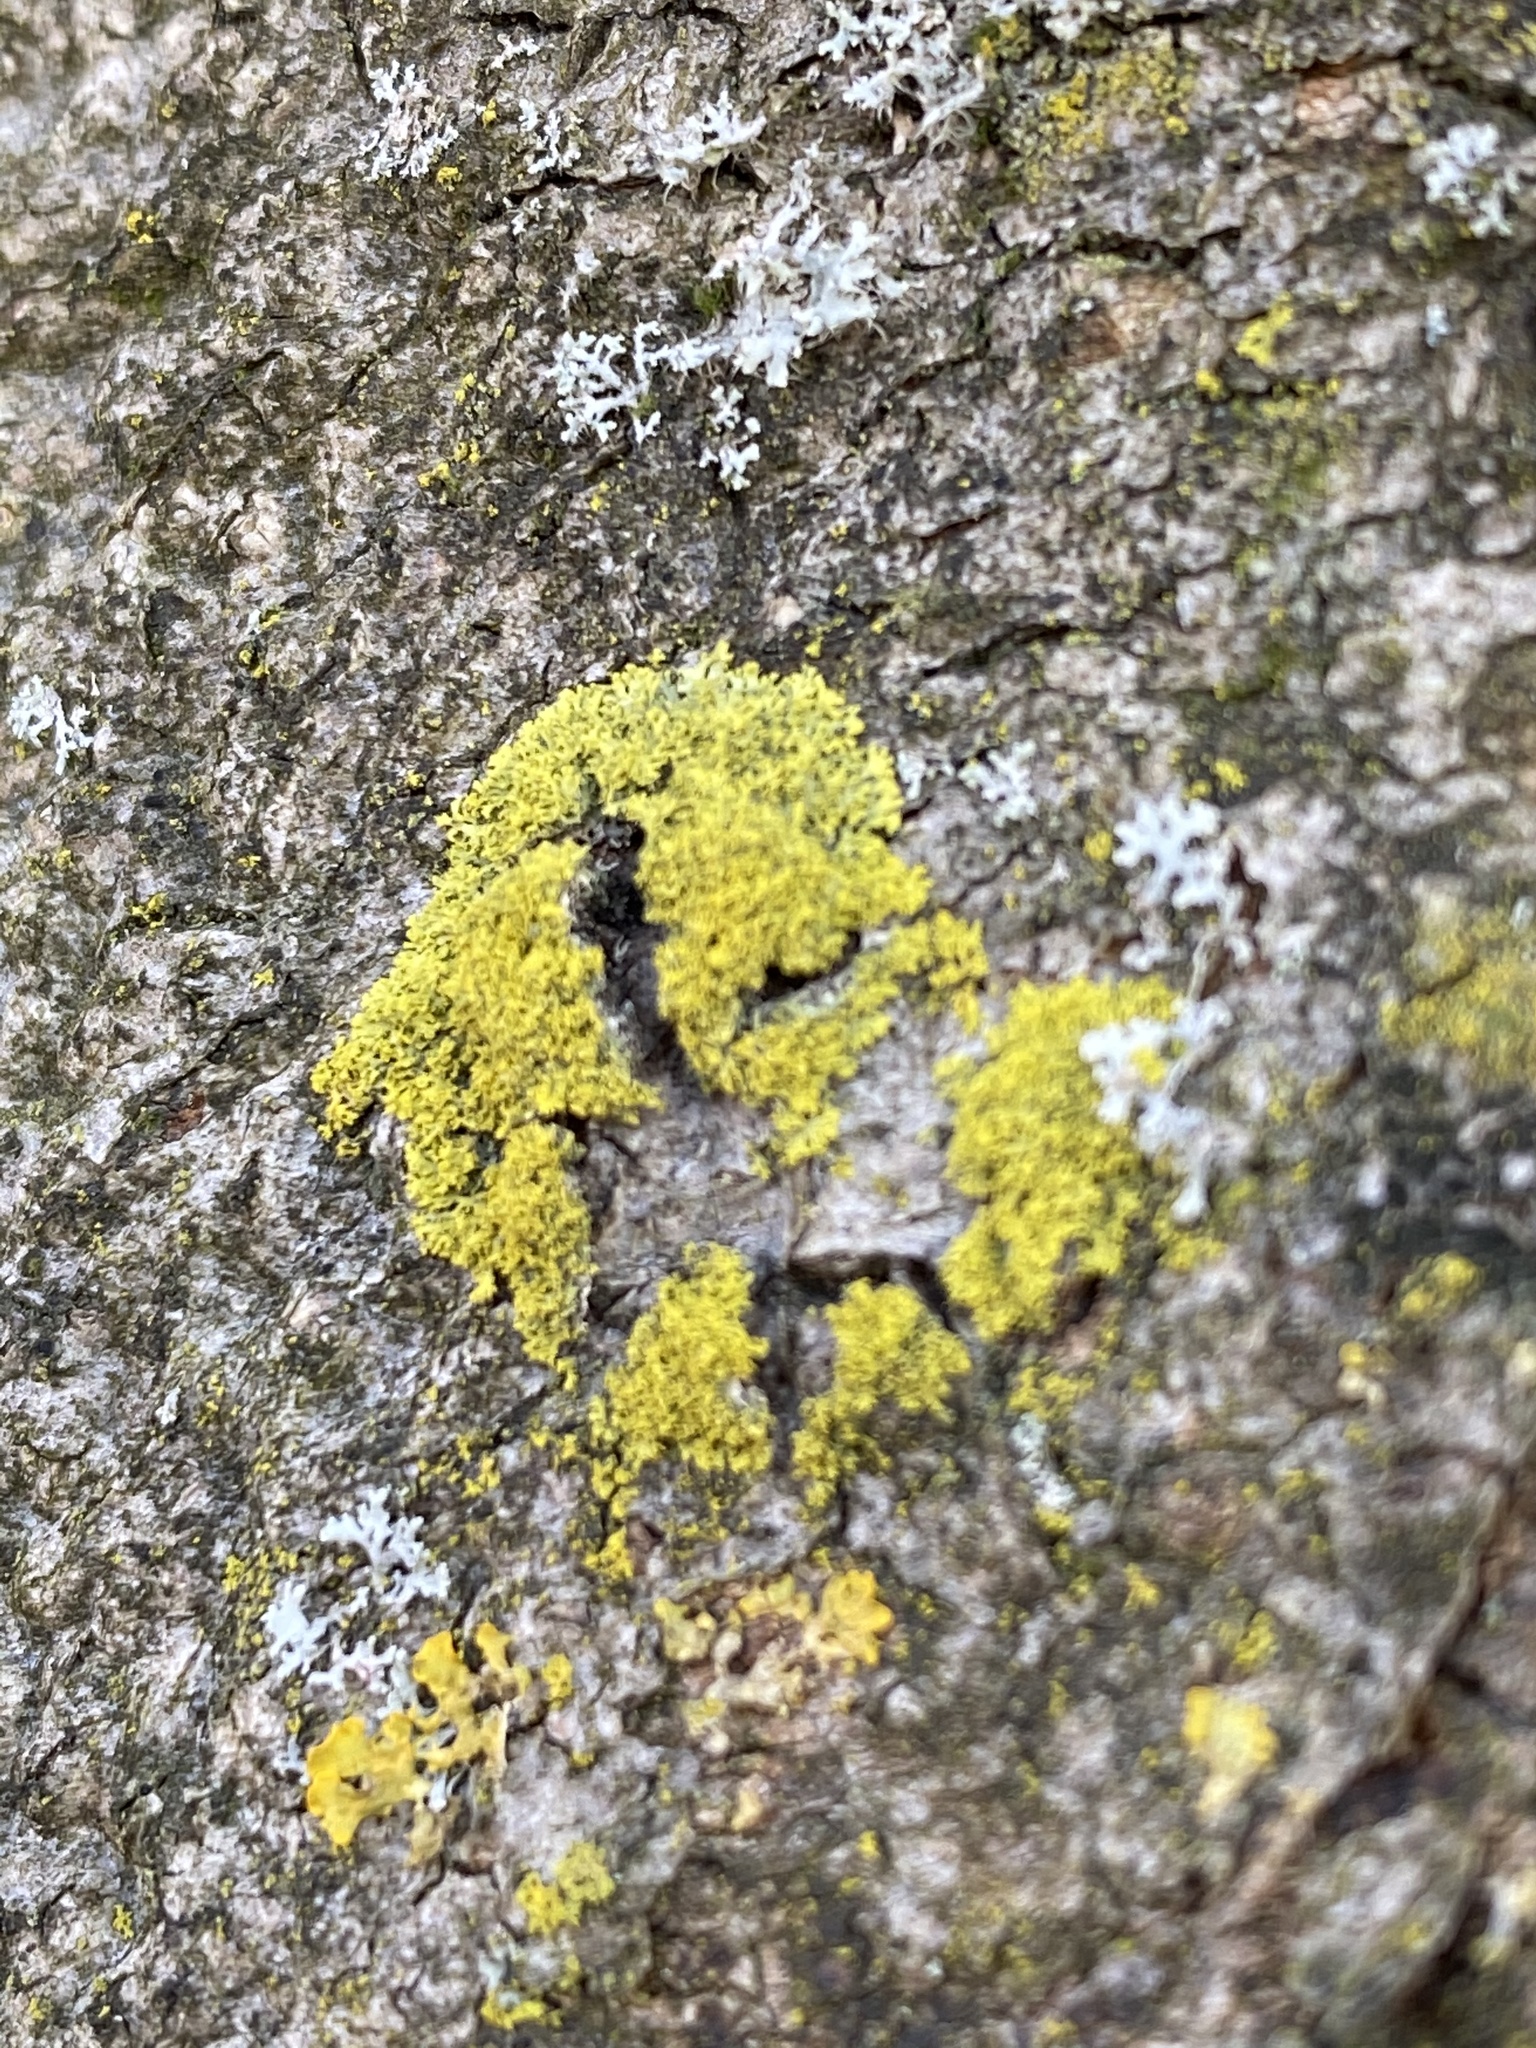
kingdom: Fungi
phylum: Ascomycota
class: Candelariomycetes
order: Candelariales
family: Candelariaceae
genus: Candelaria
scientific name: Candelaria concolor
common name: Candleflame lichen
